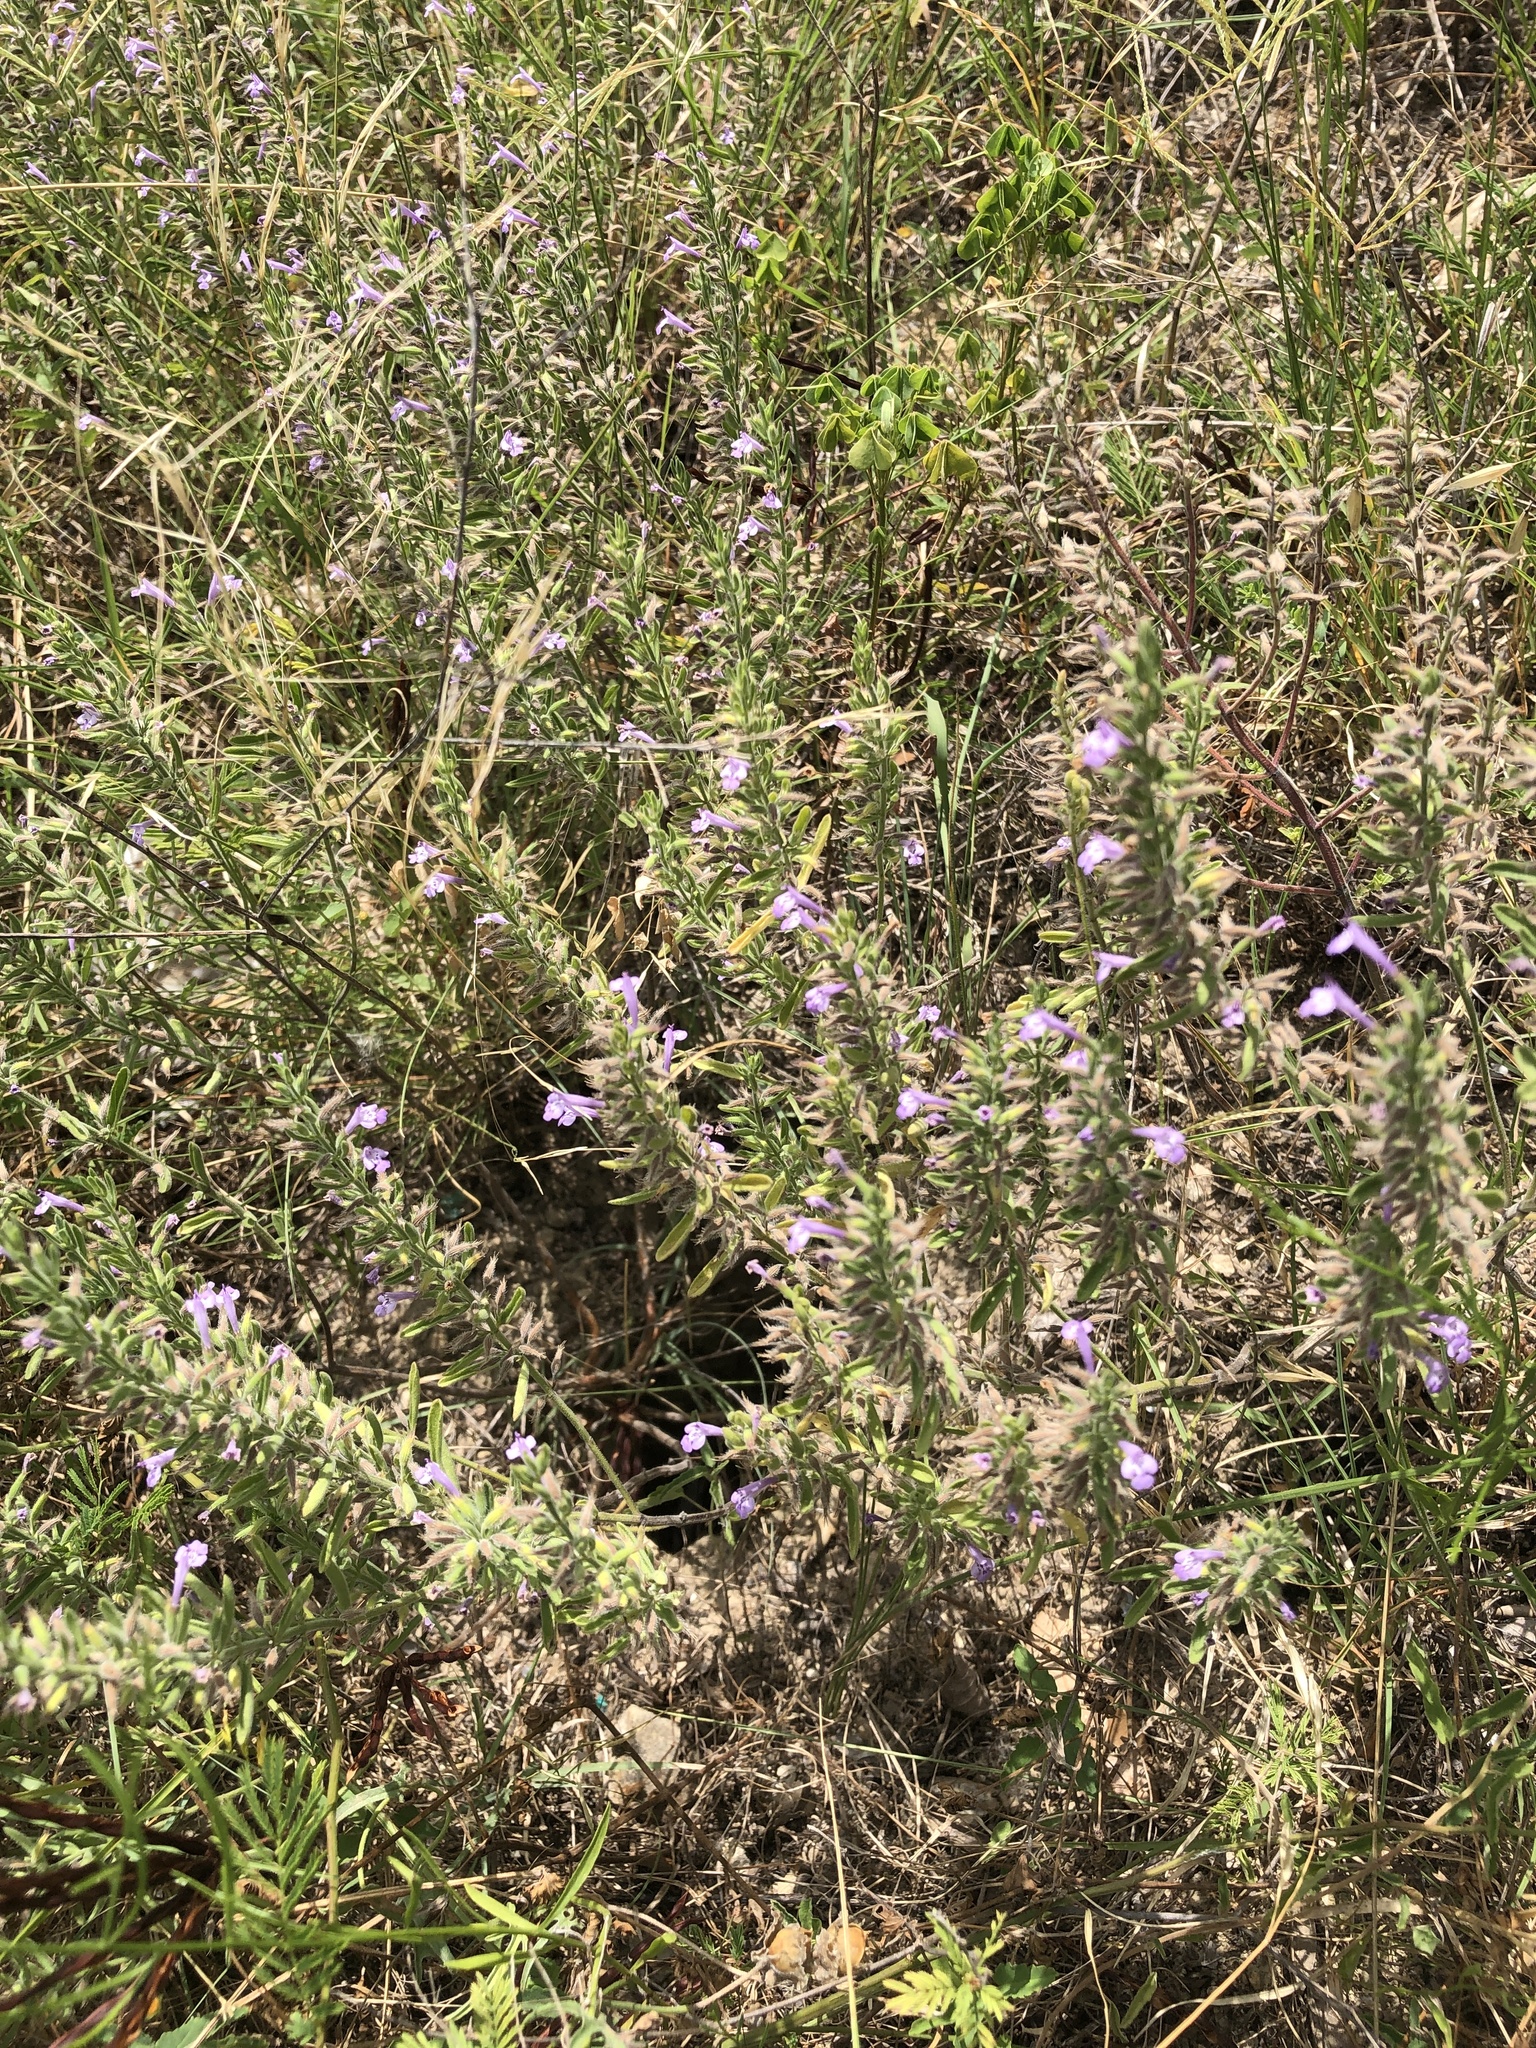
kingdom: Plantae
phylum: Tracheophyta
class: Magnoliopsida
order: Lamiales
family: Lamiaceae
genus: Hedeoma
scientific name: Hedeoma reverchonii
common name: Reverchon's false penny-royal
